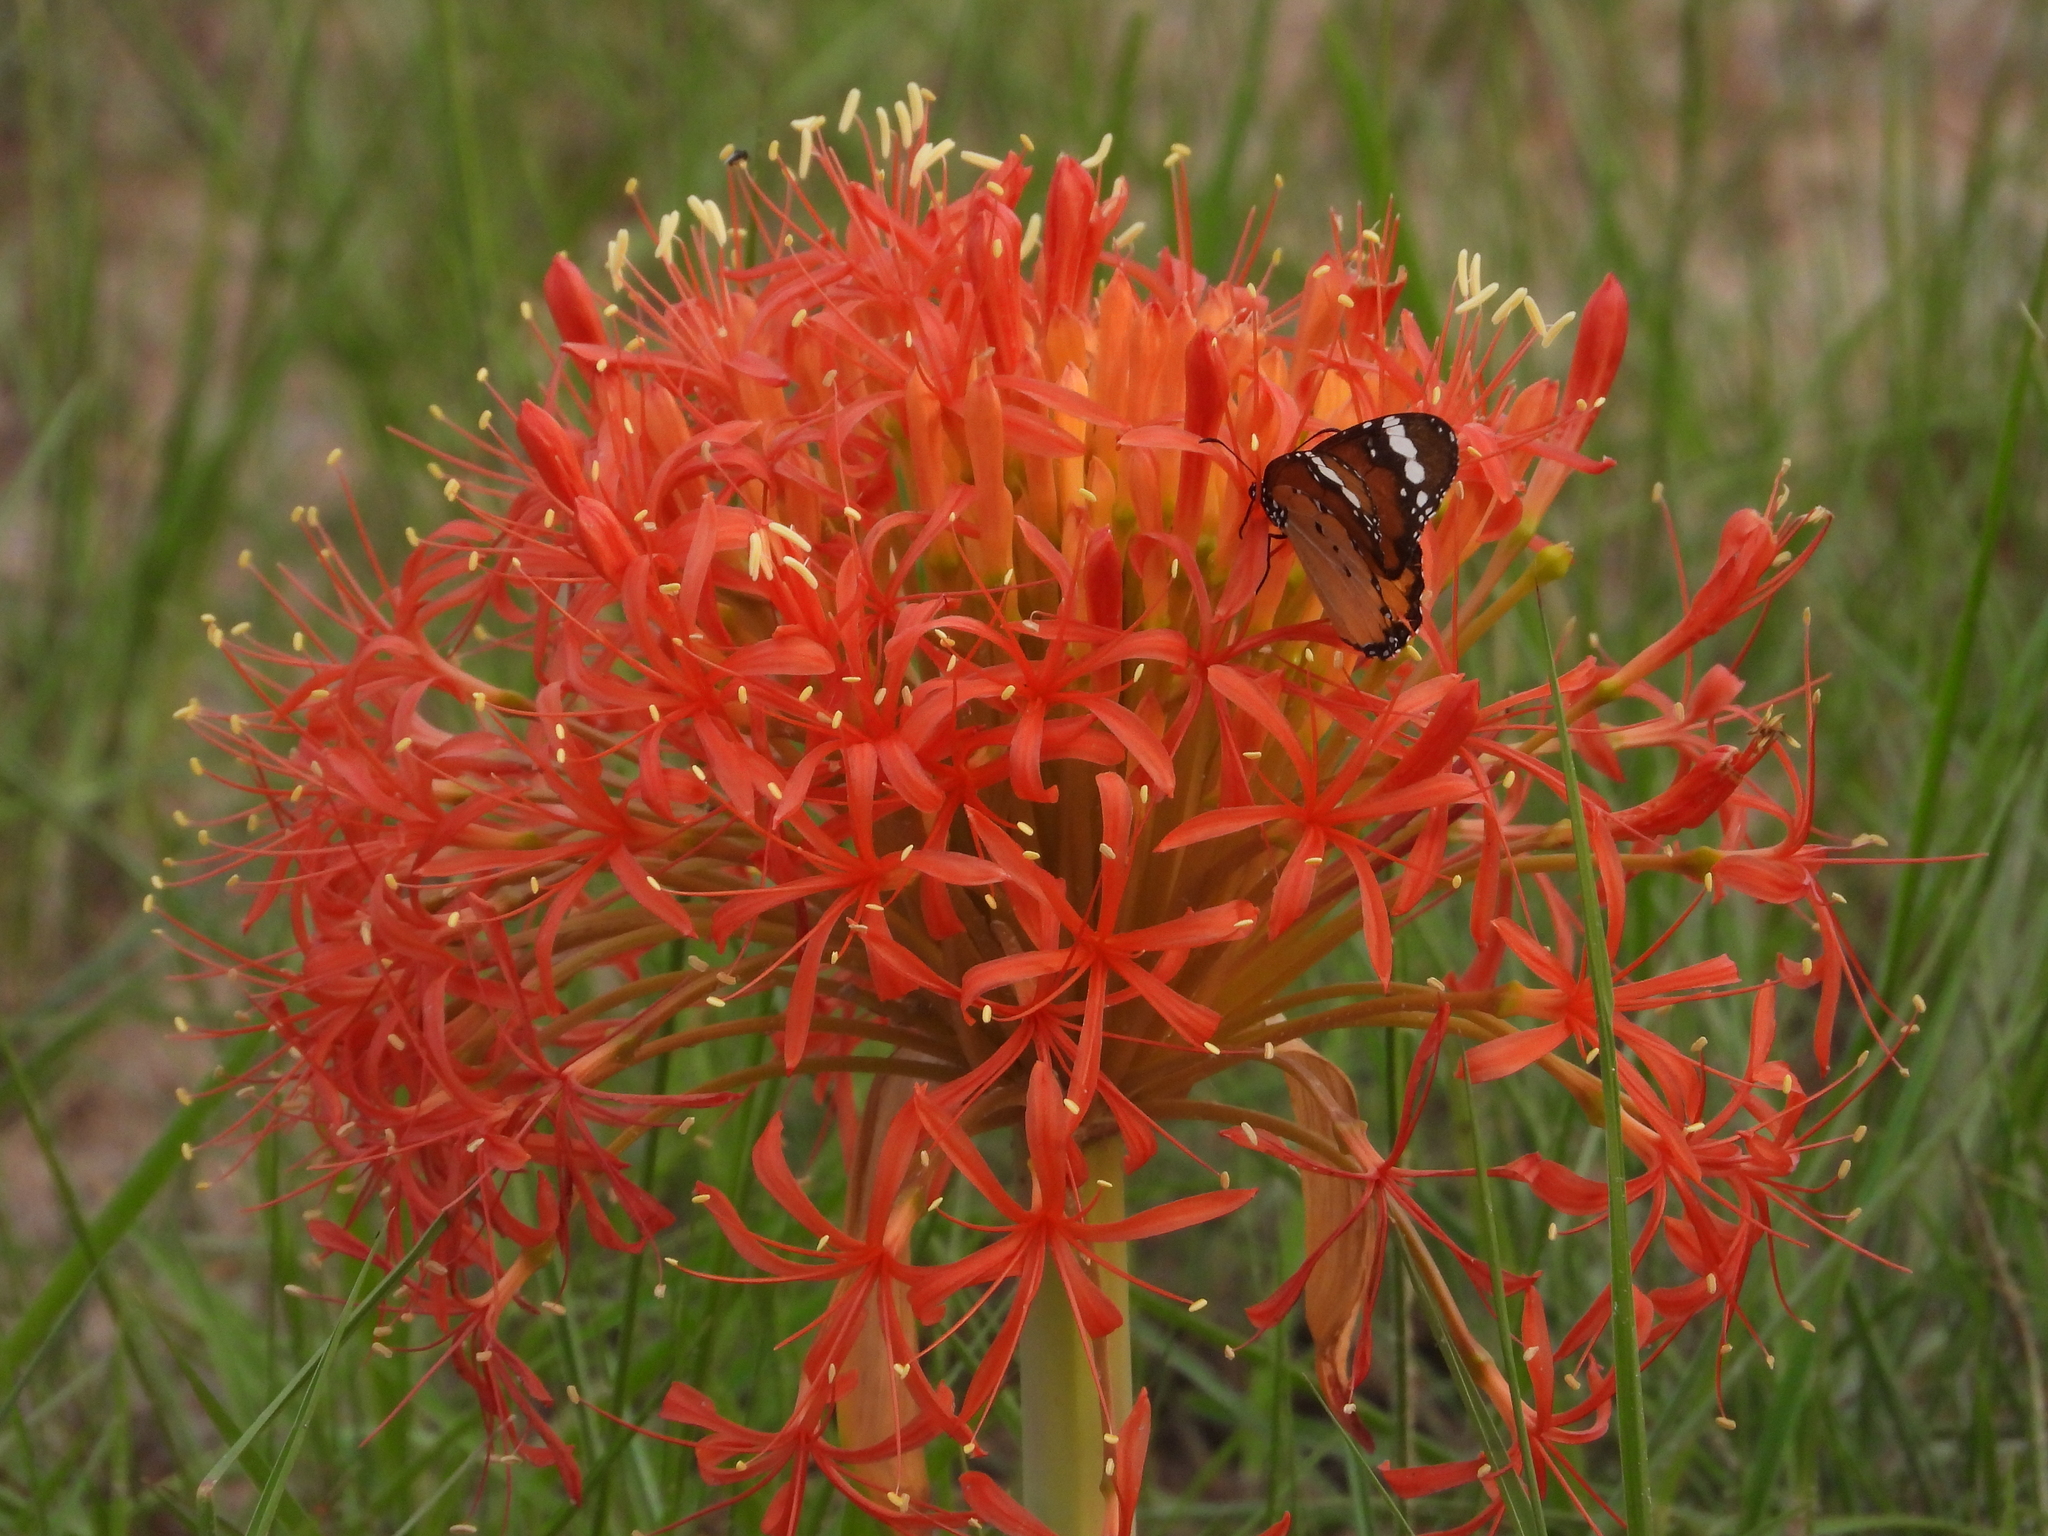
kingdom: Animalia
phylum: Arthropoda
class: Insecta
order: Lepidoptera
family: Nymphalidae
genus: Danaus
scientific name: Danaus chrysippus
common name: Plain tiger
